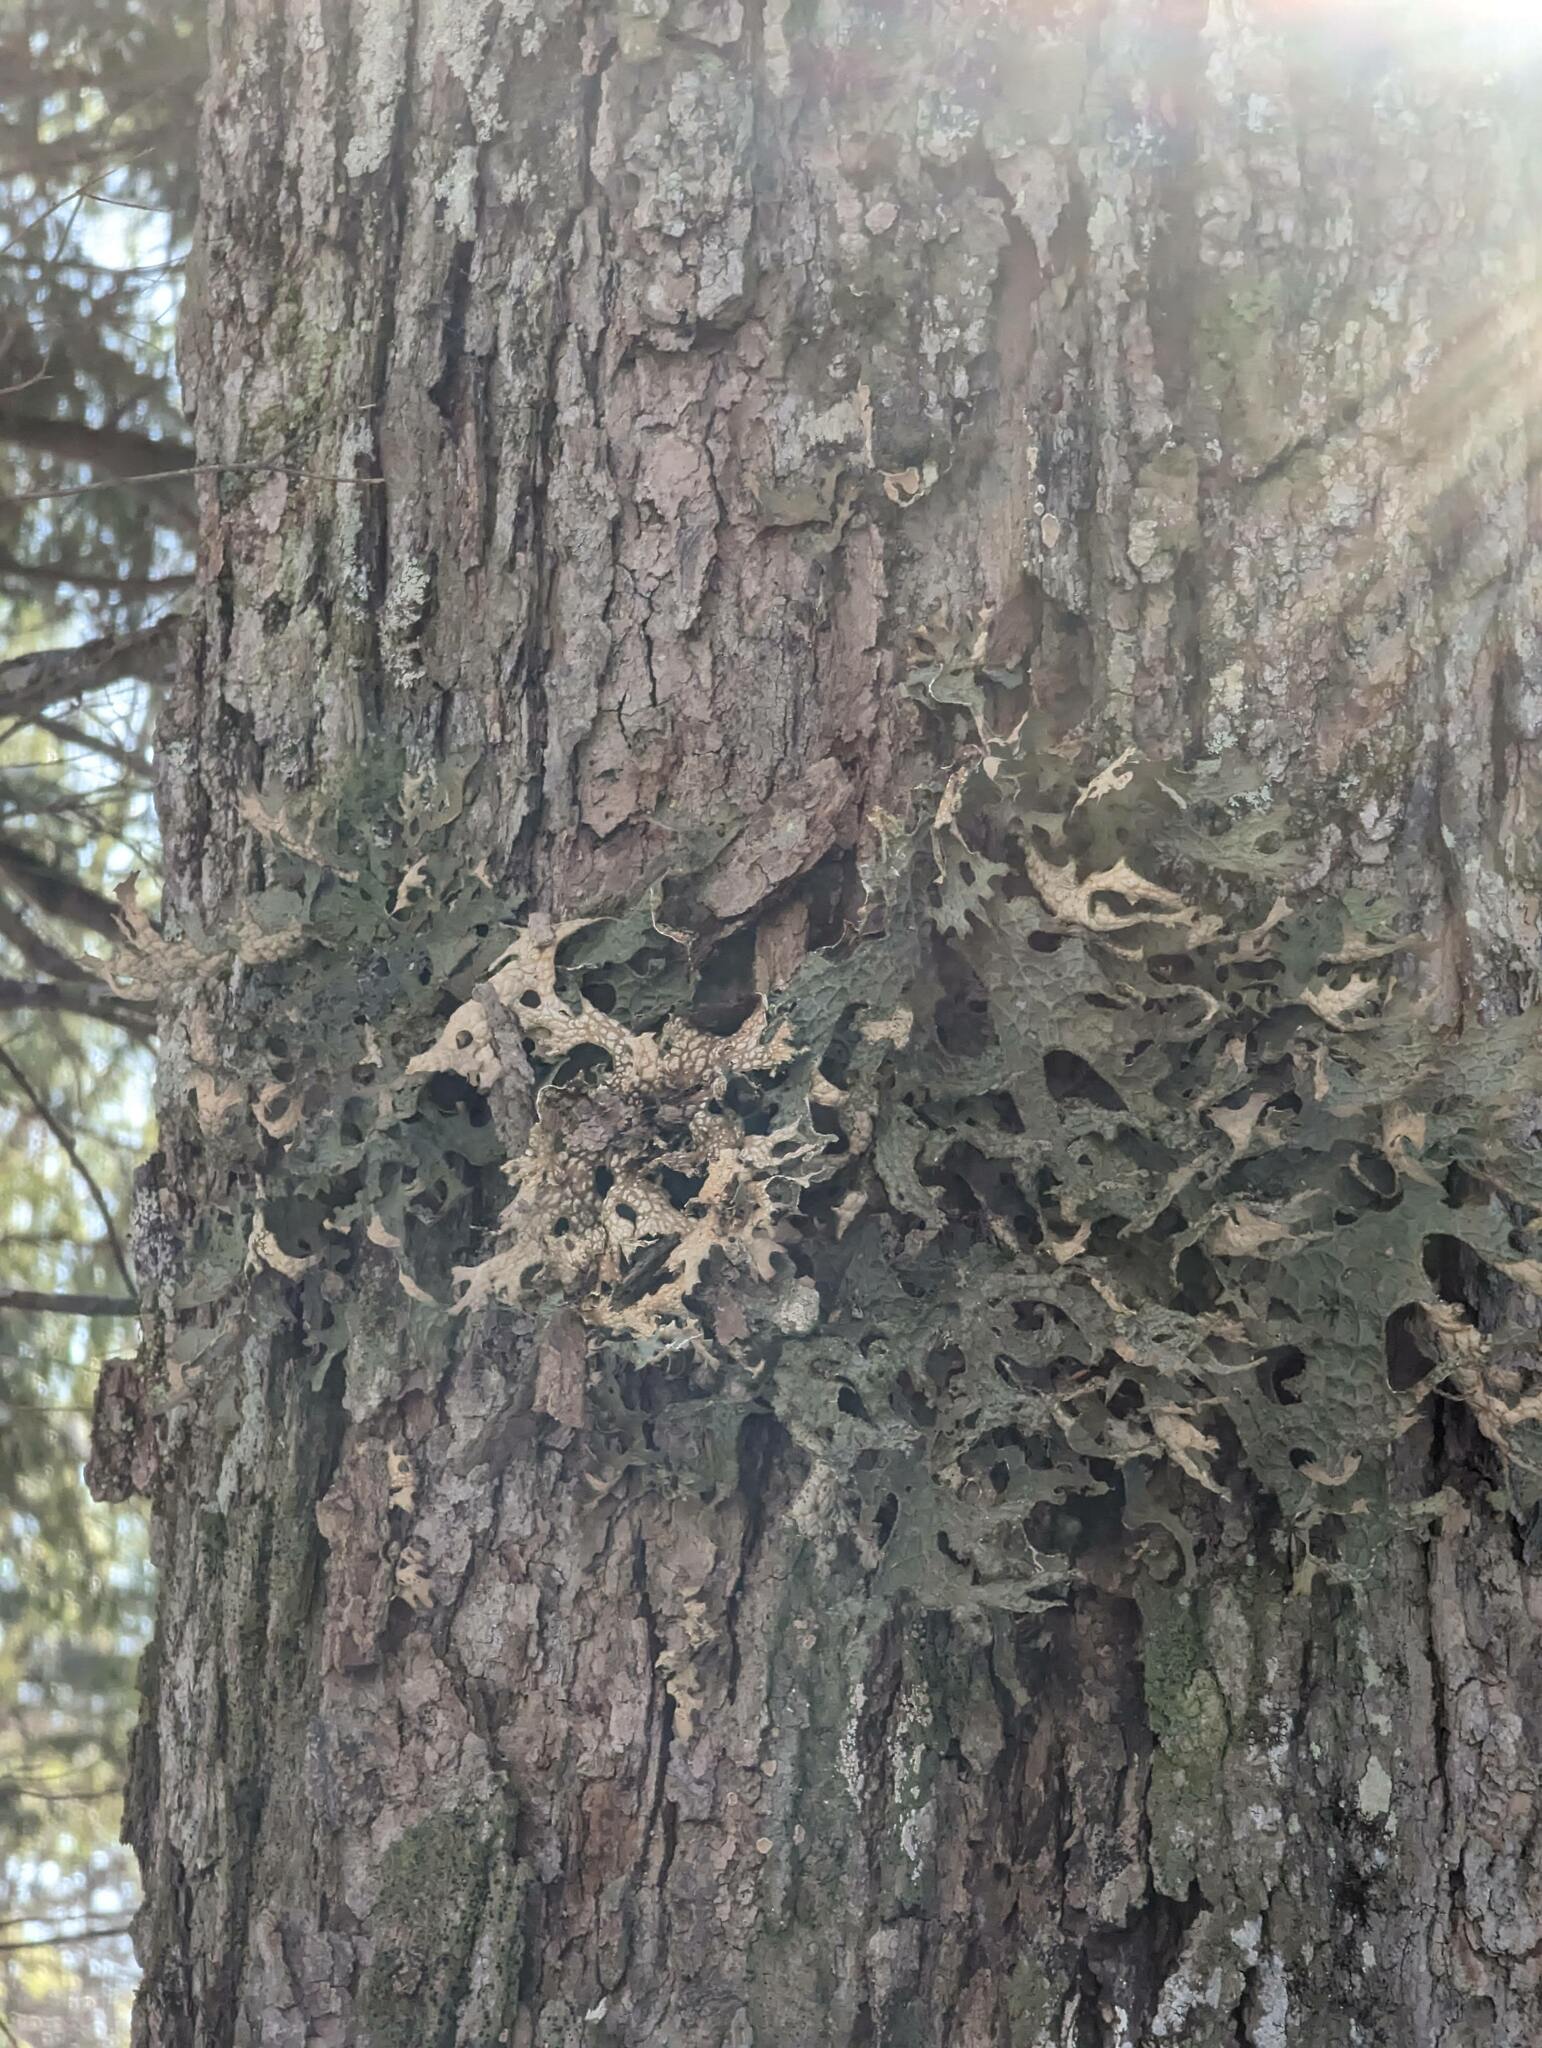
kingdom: Fungi
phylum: Ascomycota
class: Lecanoromycetes
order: Peltigerales
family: Lobariaceae
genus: Lobaria
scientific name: Lobaria pulmonaria
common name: Lungwort
